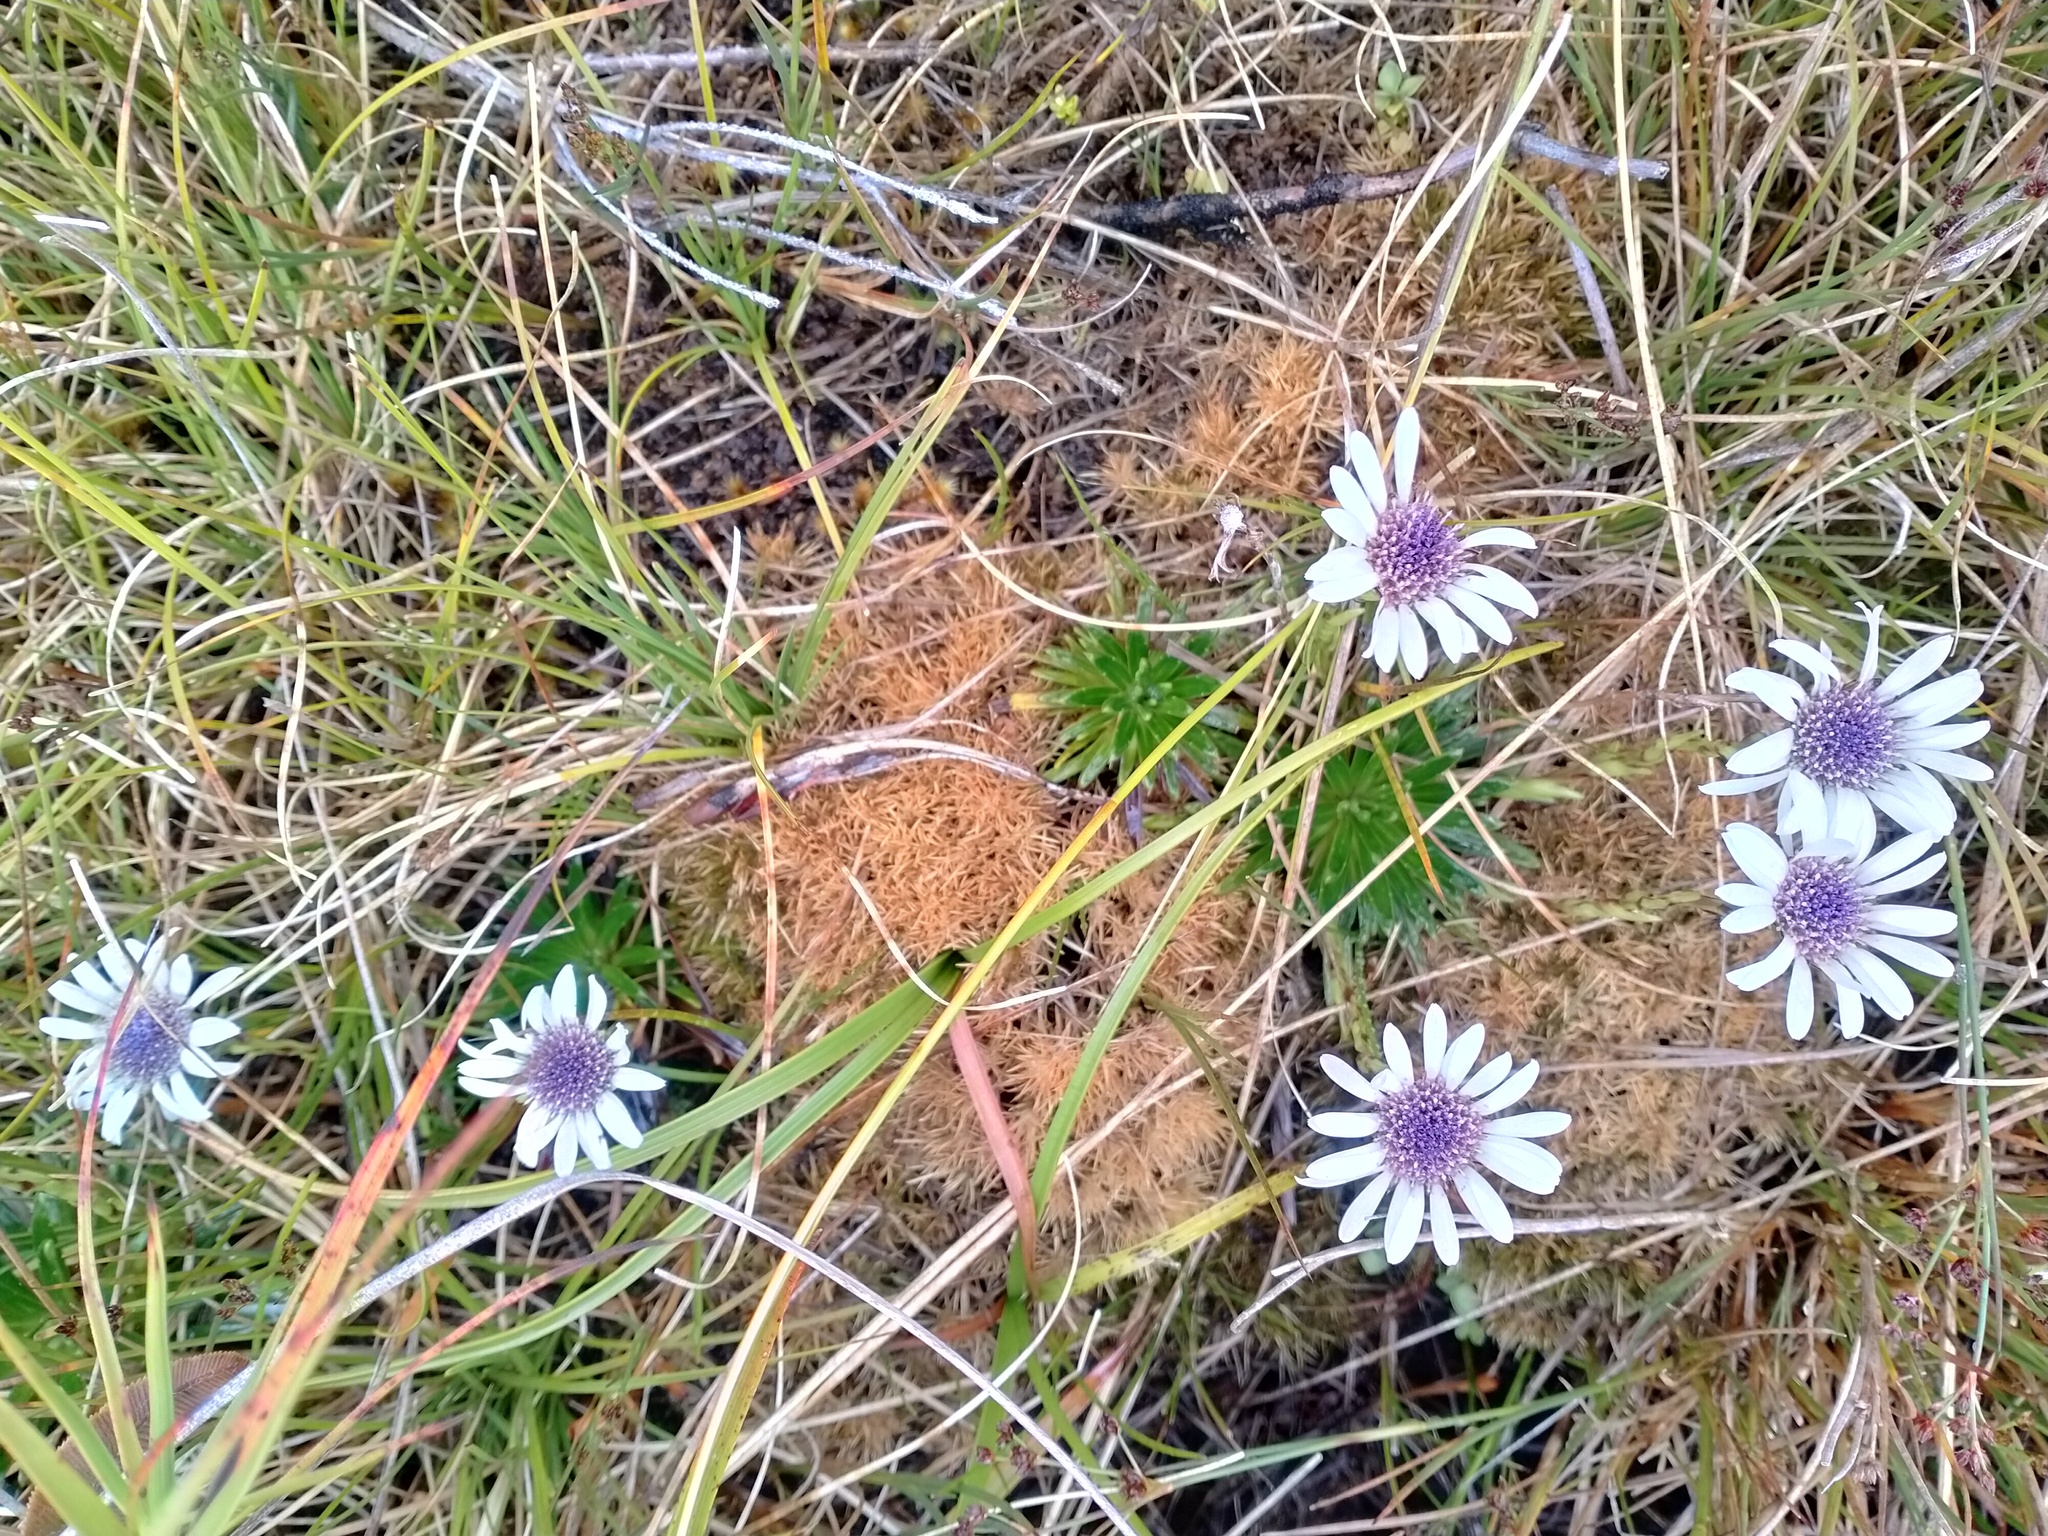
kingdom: Plantae
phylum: Tracheophyta
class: Magnoliopsida
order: Asterales
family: Asteraceae
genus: Damnamenia
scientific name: Damnamenia vernicosa
